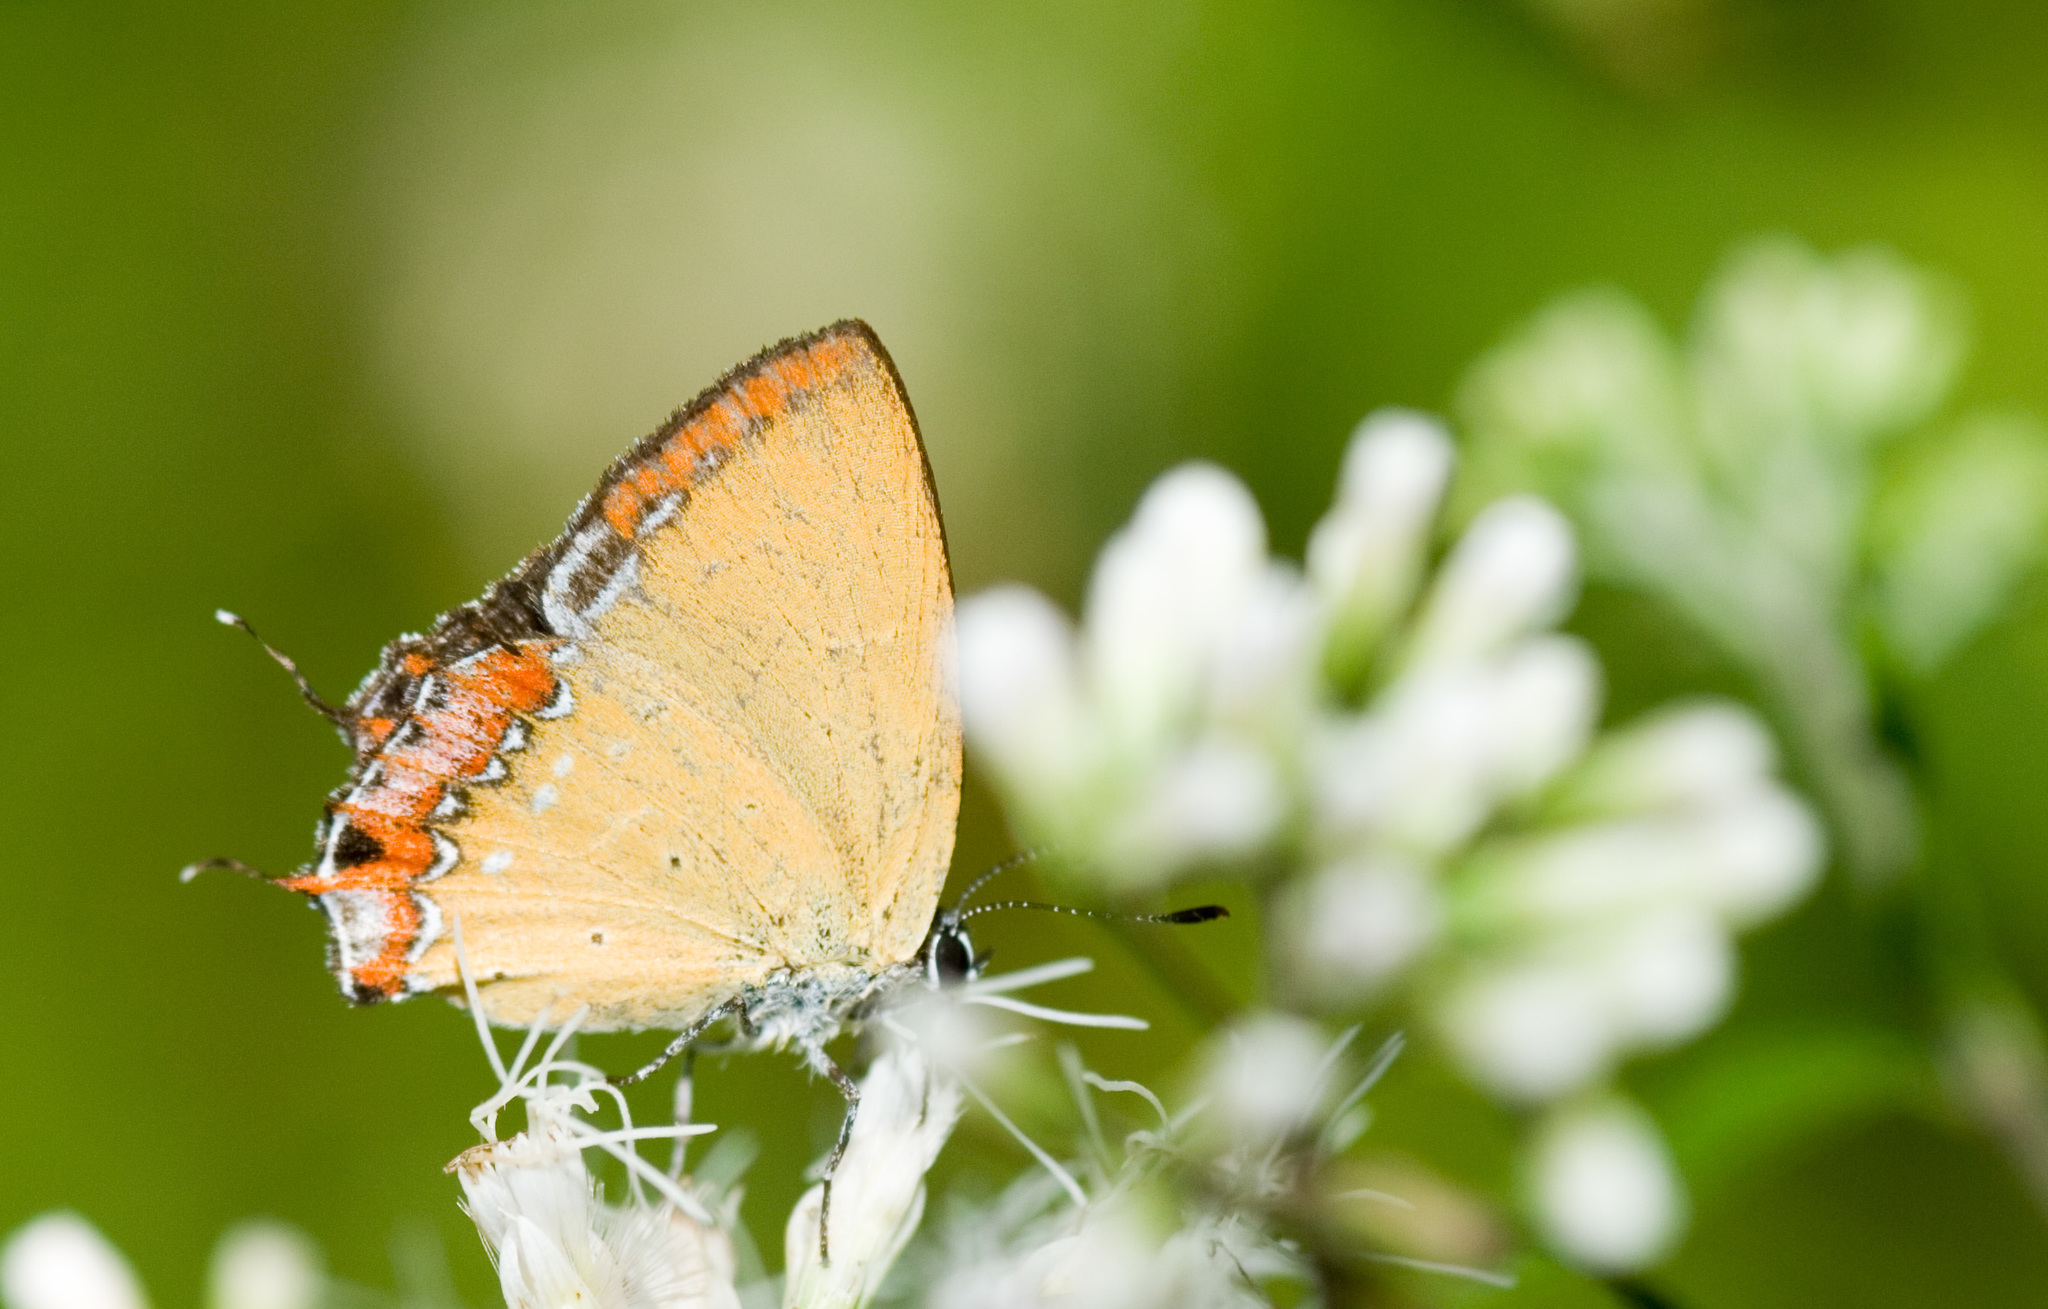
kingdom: Animalia
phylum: Arthropoda
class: Insecta
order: Lepidoptera
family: Lycaenidae
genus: Heliophorus
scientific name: Heliophorus ila
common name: Restricted purple sapphire
